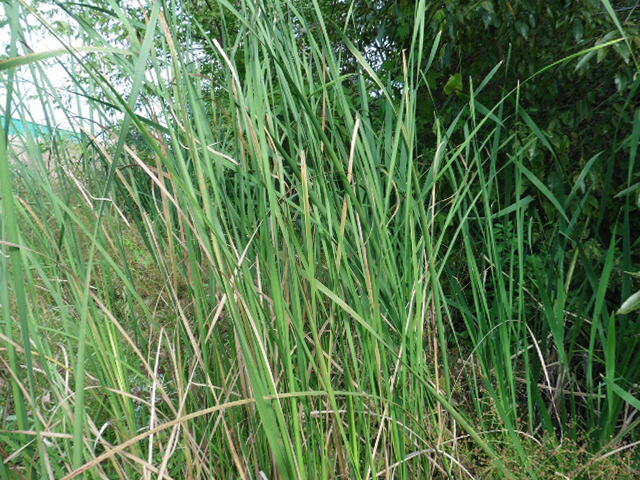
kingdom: Plantae
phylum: Tracheophyta
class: Liliopsida
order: Poales
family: Typhaceae
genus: Typha
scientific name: Typha angustifolia
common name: Lesser bulrush
